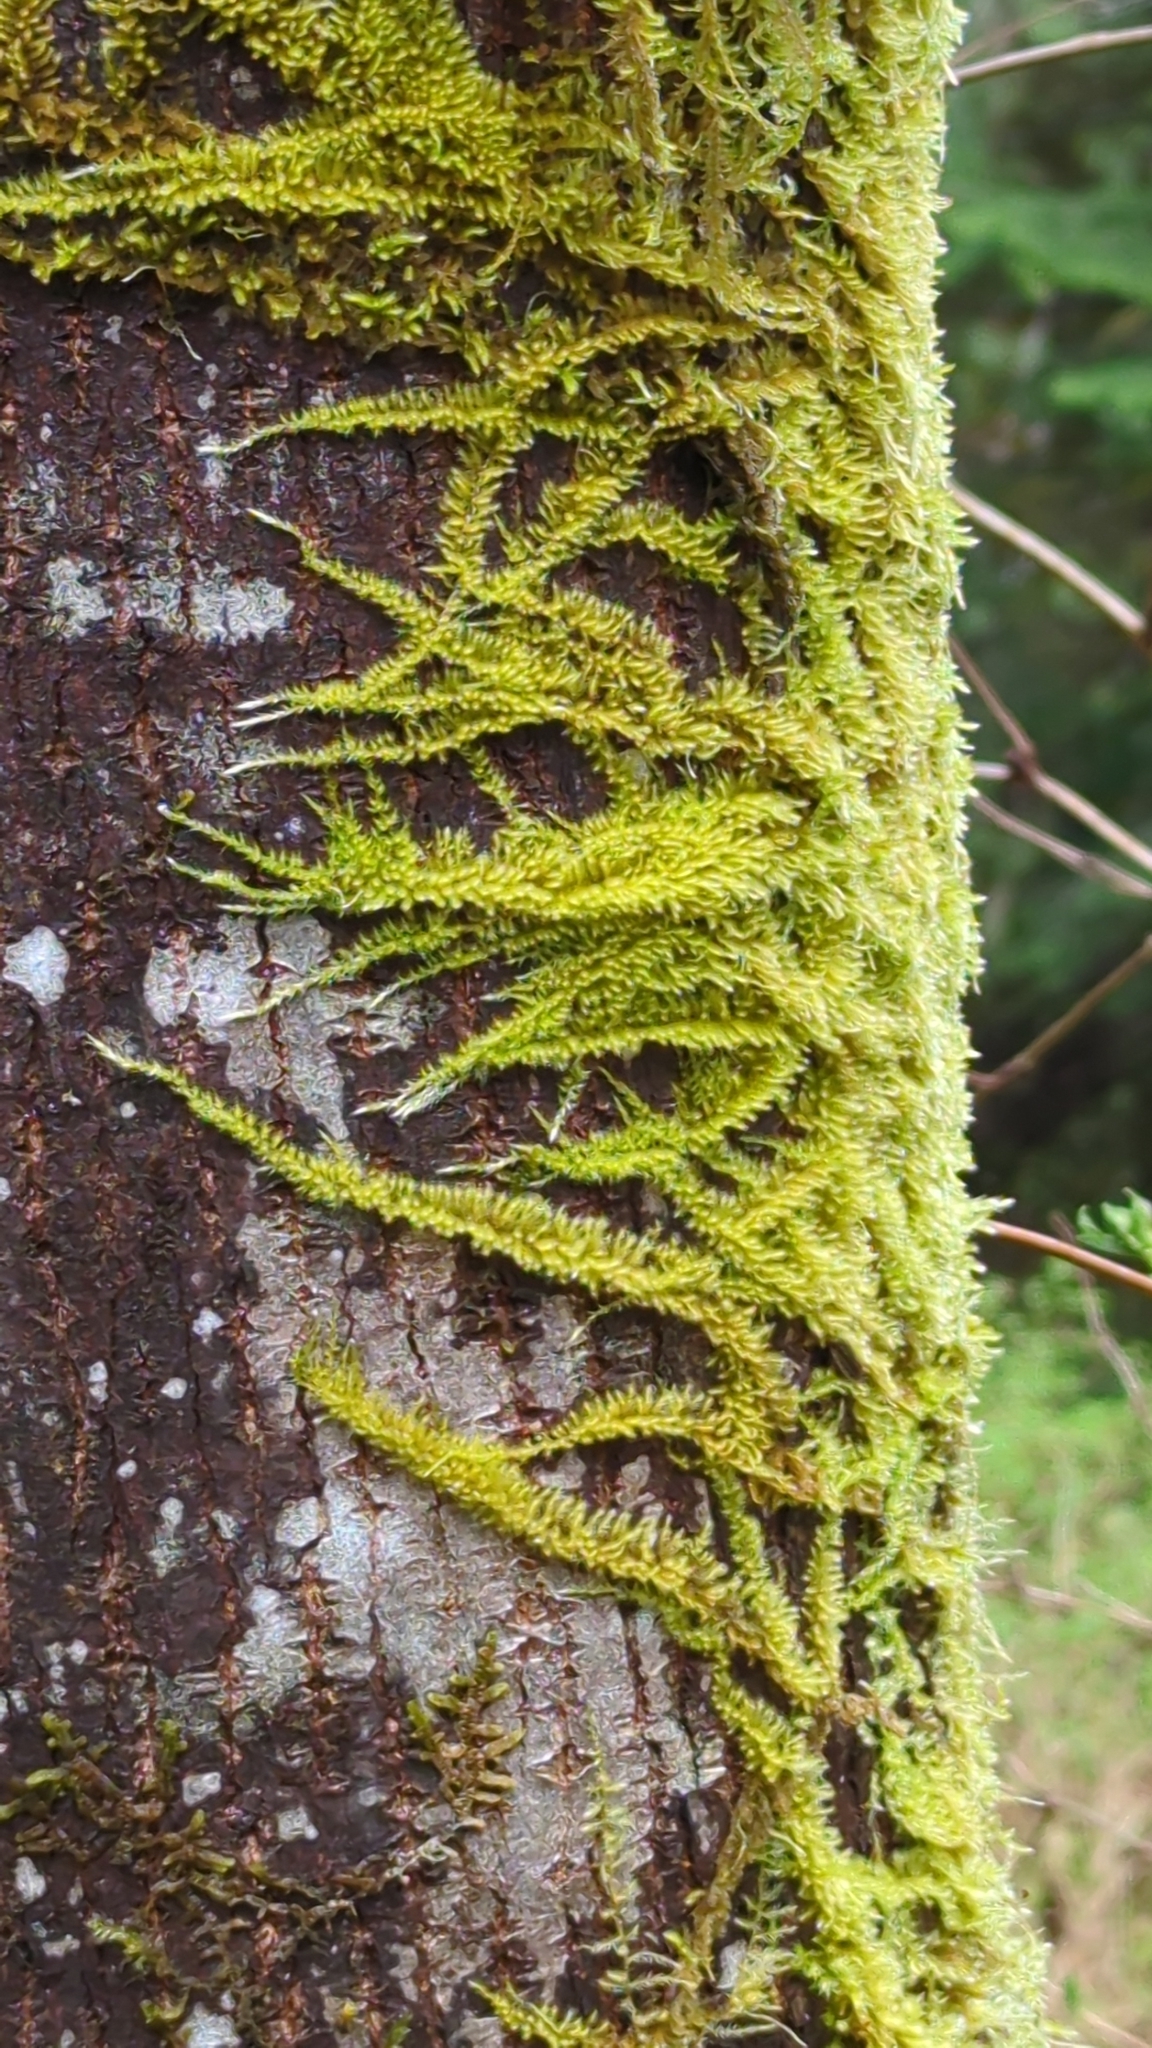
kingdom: Plantae
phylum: Bryophyta
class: Bryopsida
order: Hypnales
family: Brachytheciaceae
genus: Homalothecium
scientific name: Homalothecium nuttallii
